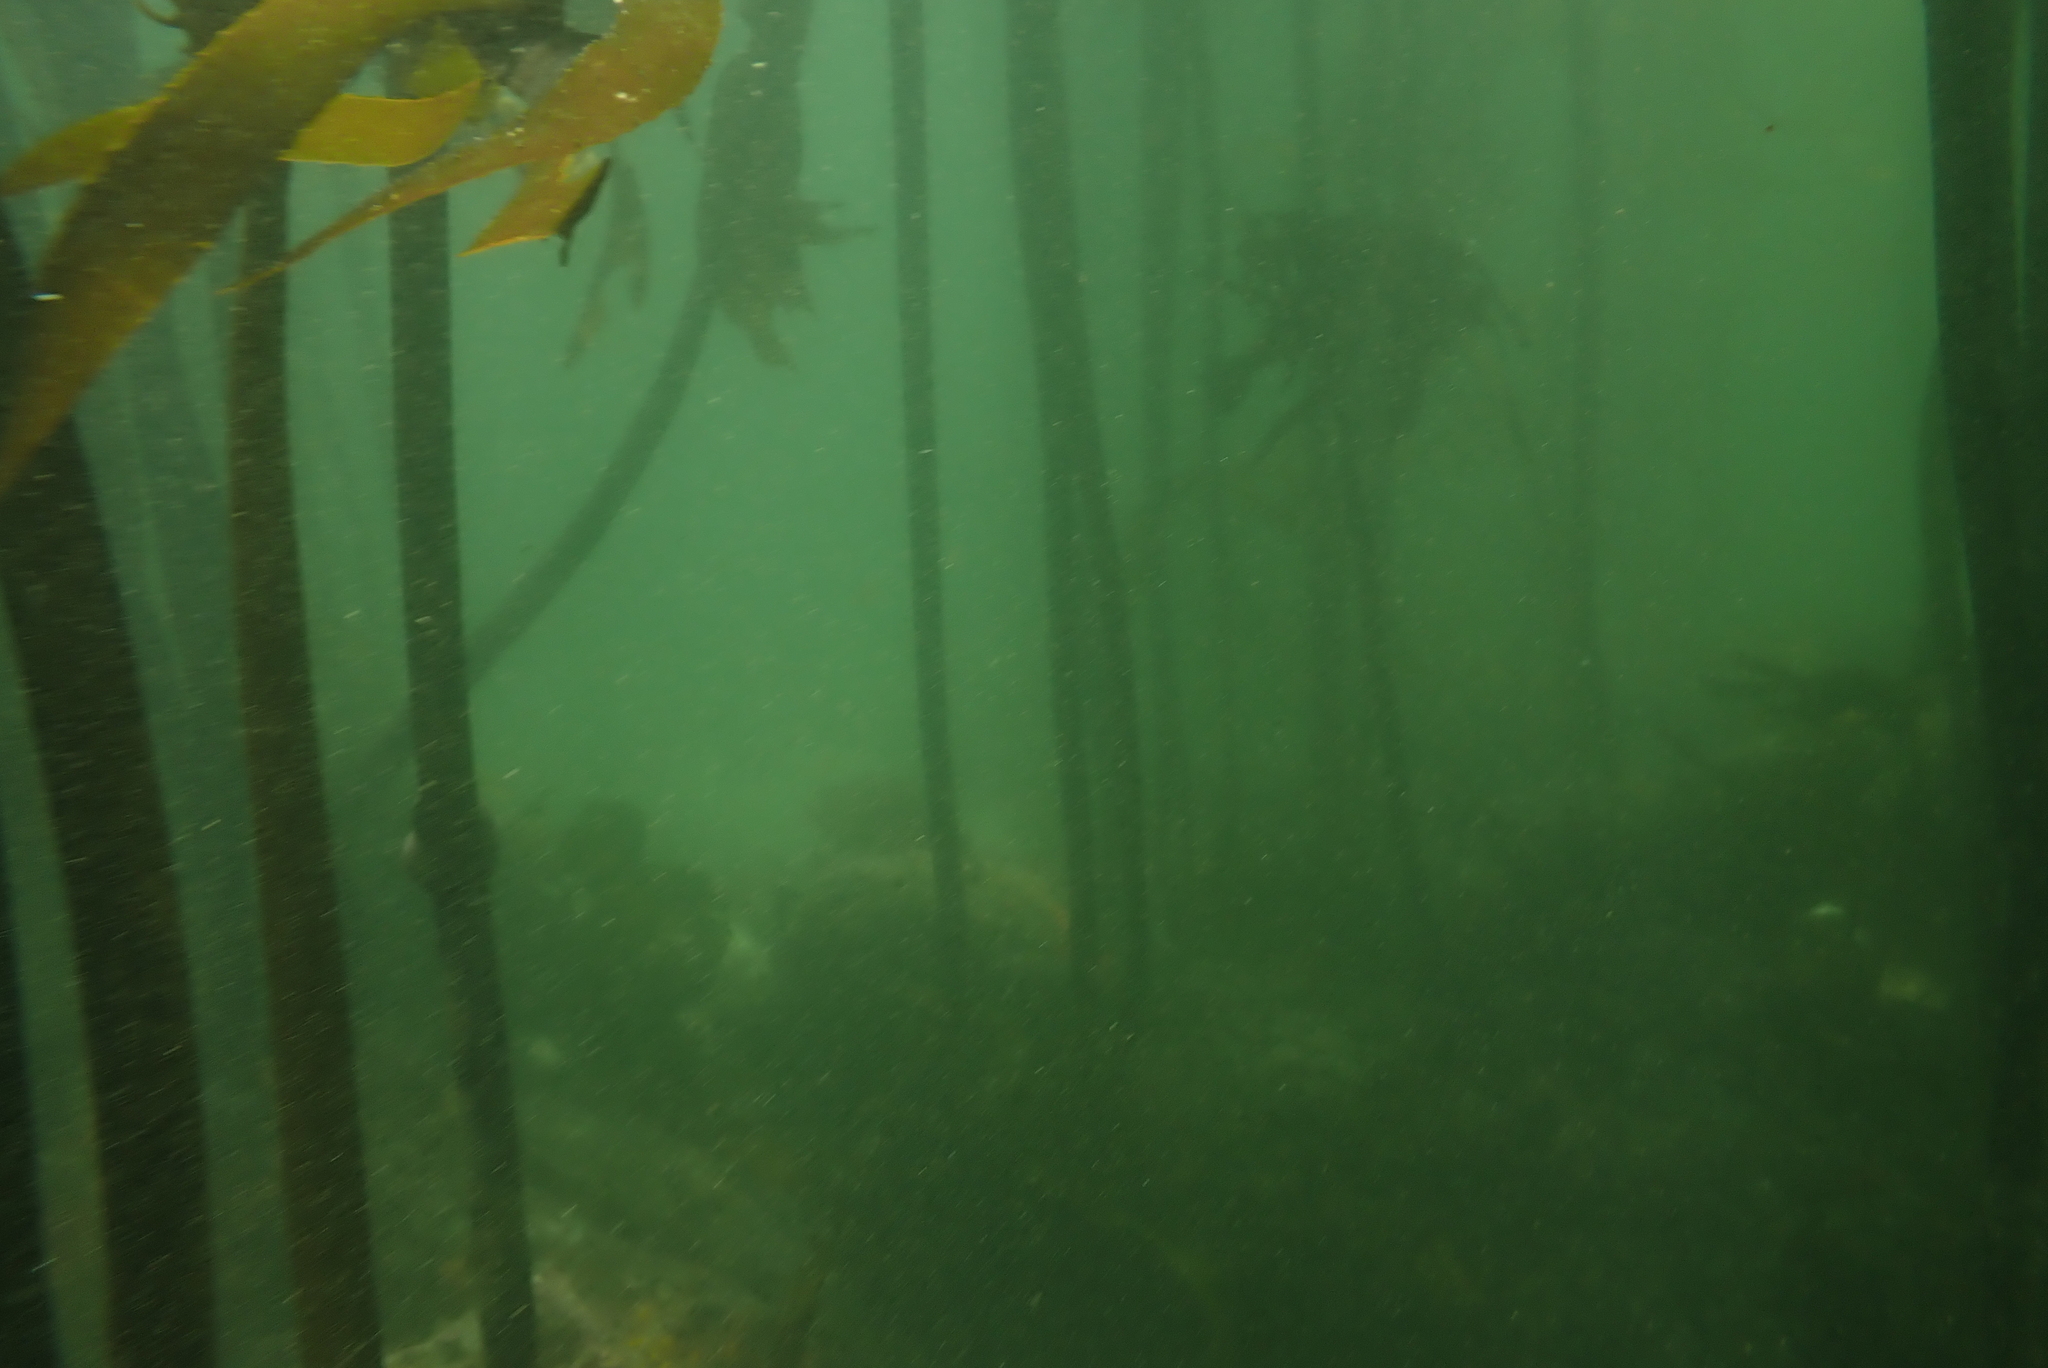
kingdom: Chromista
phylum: Ochrophyta
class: Phaeophyceae
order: Laminariales
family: Lessoniaceae
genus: Ecklonia
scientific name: Ecklonia
